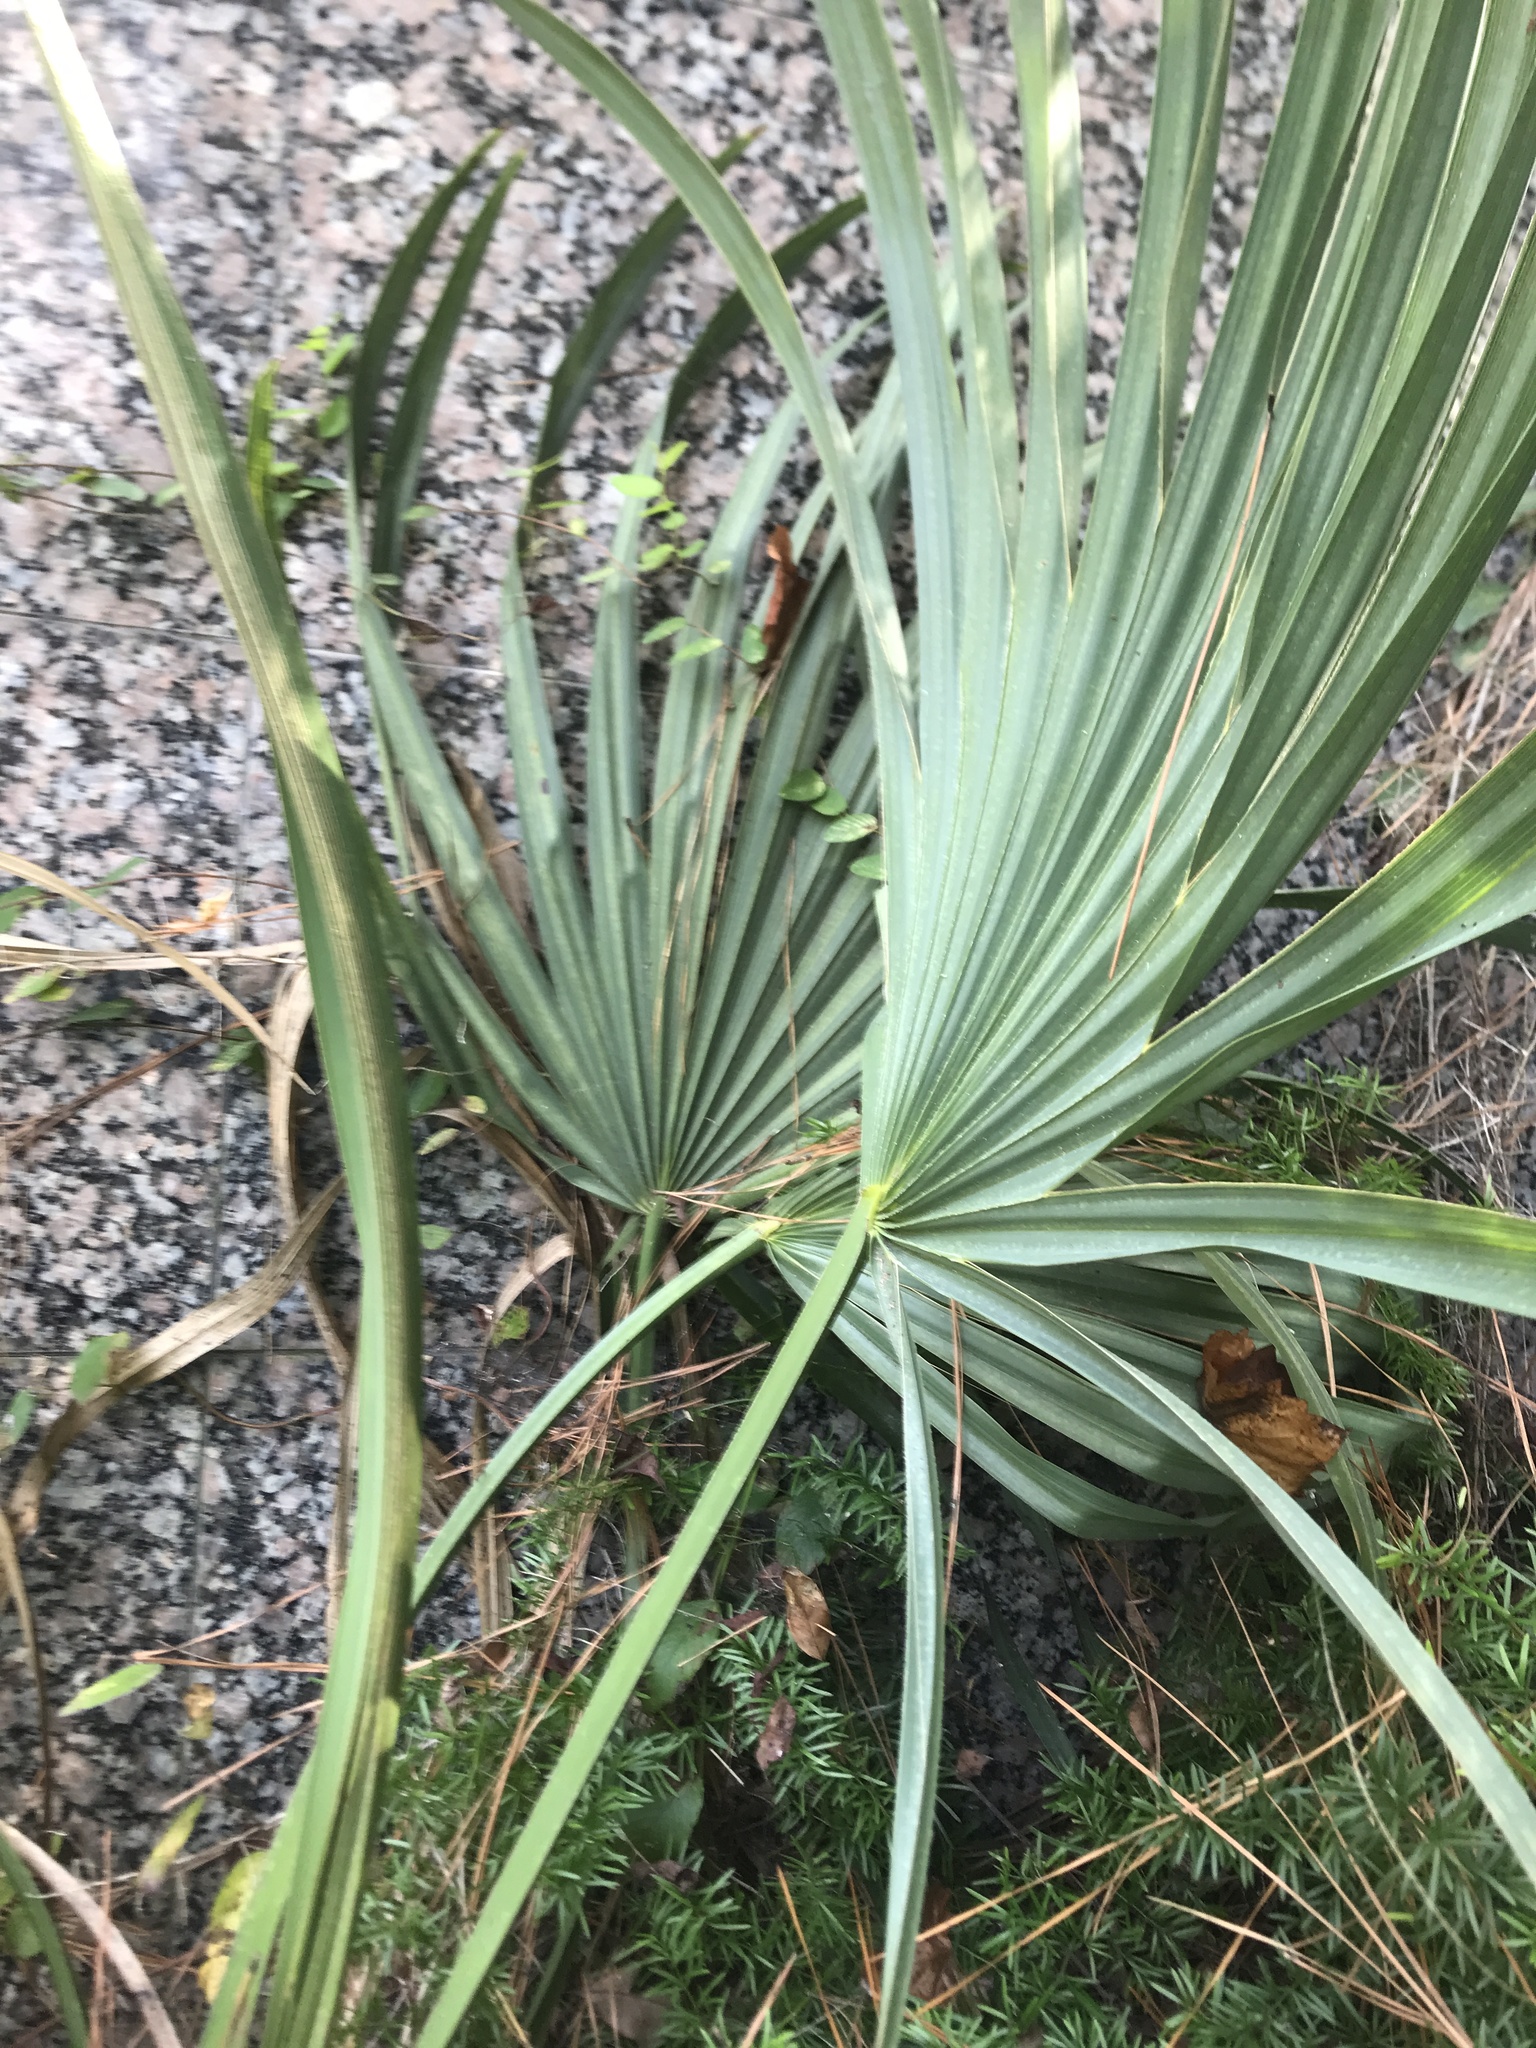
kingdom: Plantae
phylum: Tracheophyta
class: Liliopsida
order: Arecales
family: Arecaceae
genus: Sabal
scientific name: Sabal minor
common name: Dwarf palmetto
